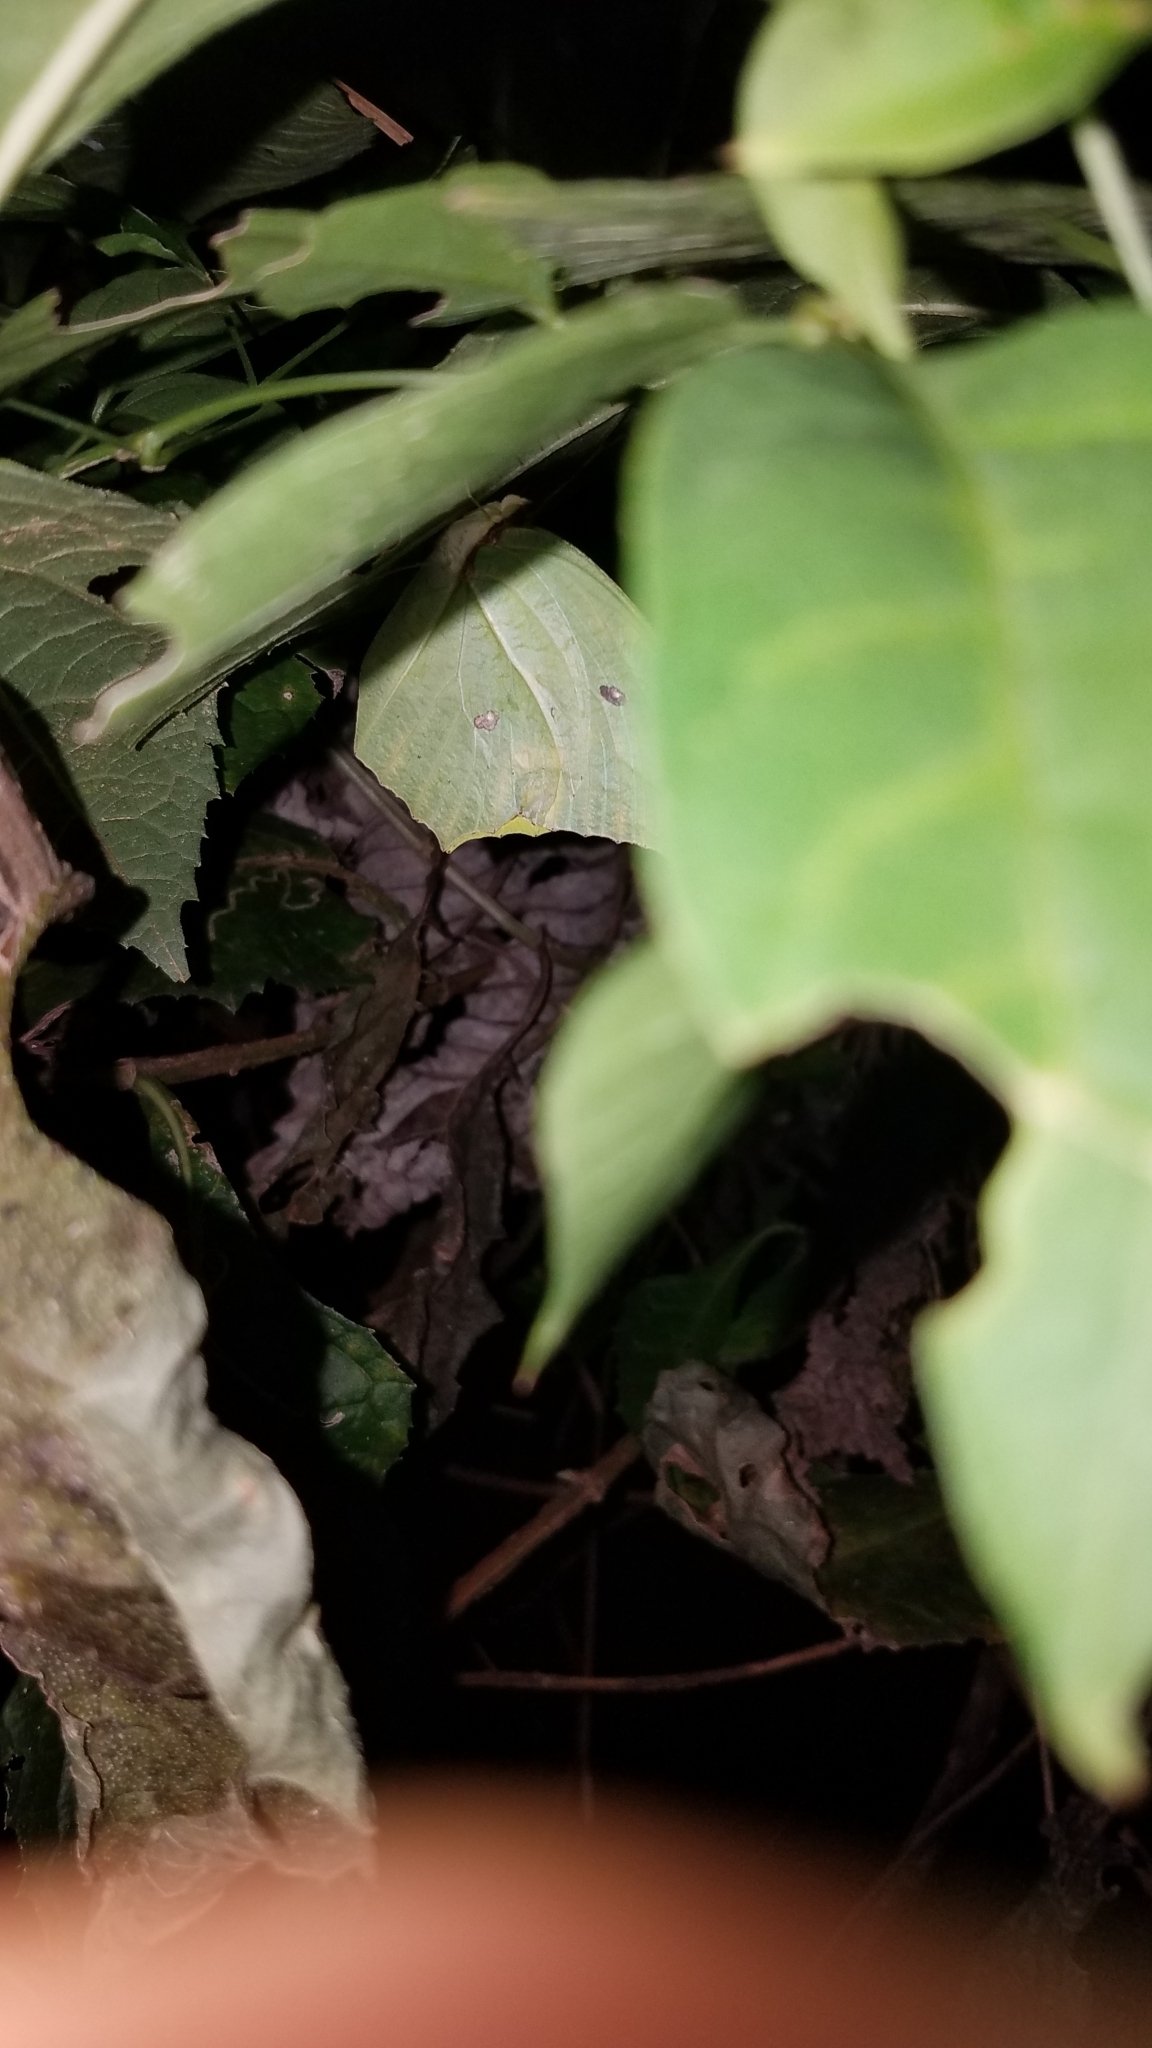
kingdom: Animalia
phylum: Arthropoda
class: Insecta
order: Lepidoptera
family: Pieridae
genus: Anteos
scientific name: Anteos clorinde
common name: White angled sulphur
